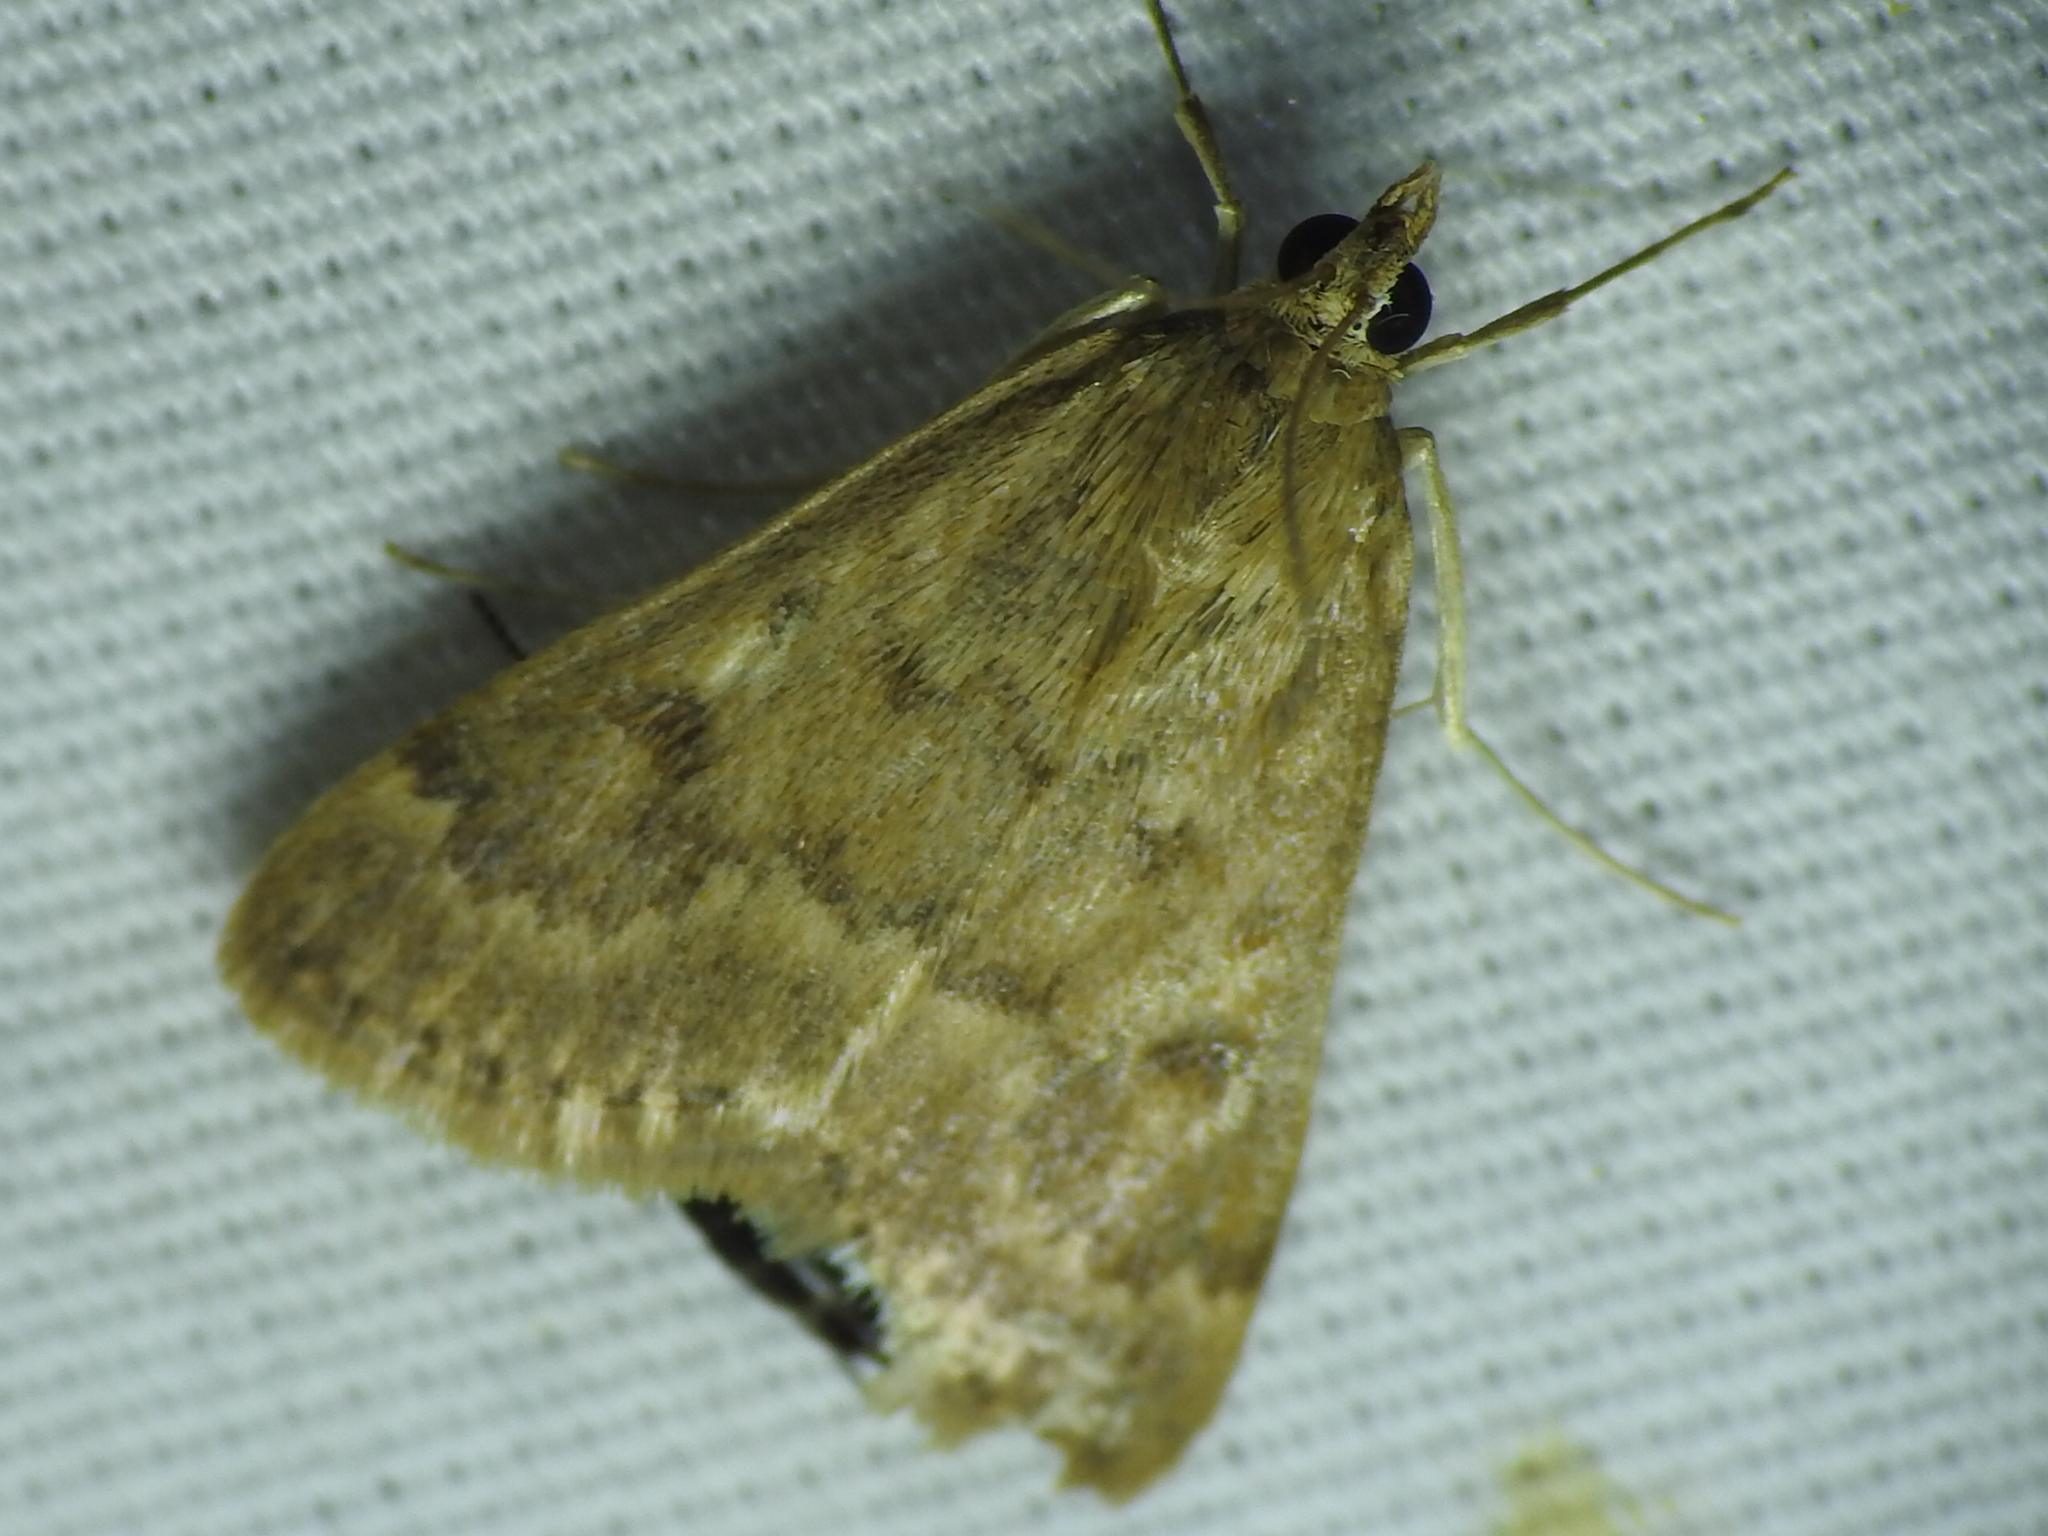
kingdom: Animalia
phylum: Arthropoda
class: Insecta
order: Lepidoptera
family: Crambidae
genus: Achyra
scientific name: Achyra rantalis
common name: Garden webworm
